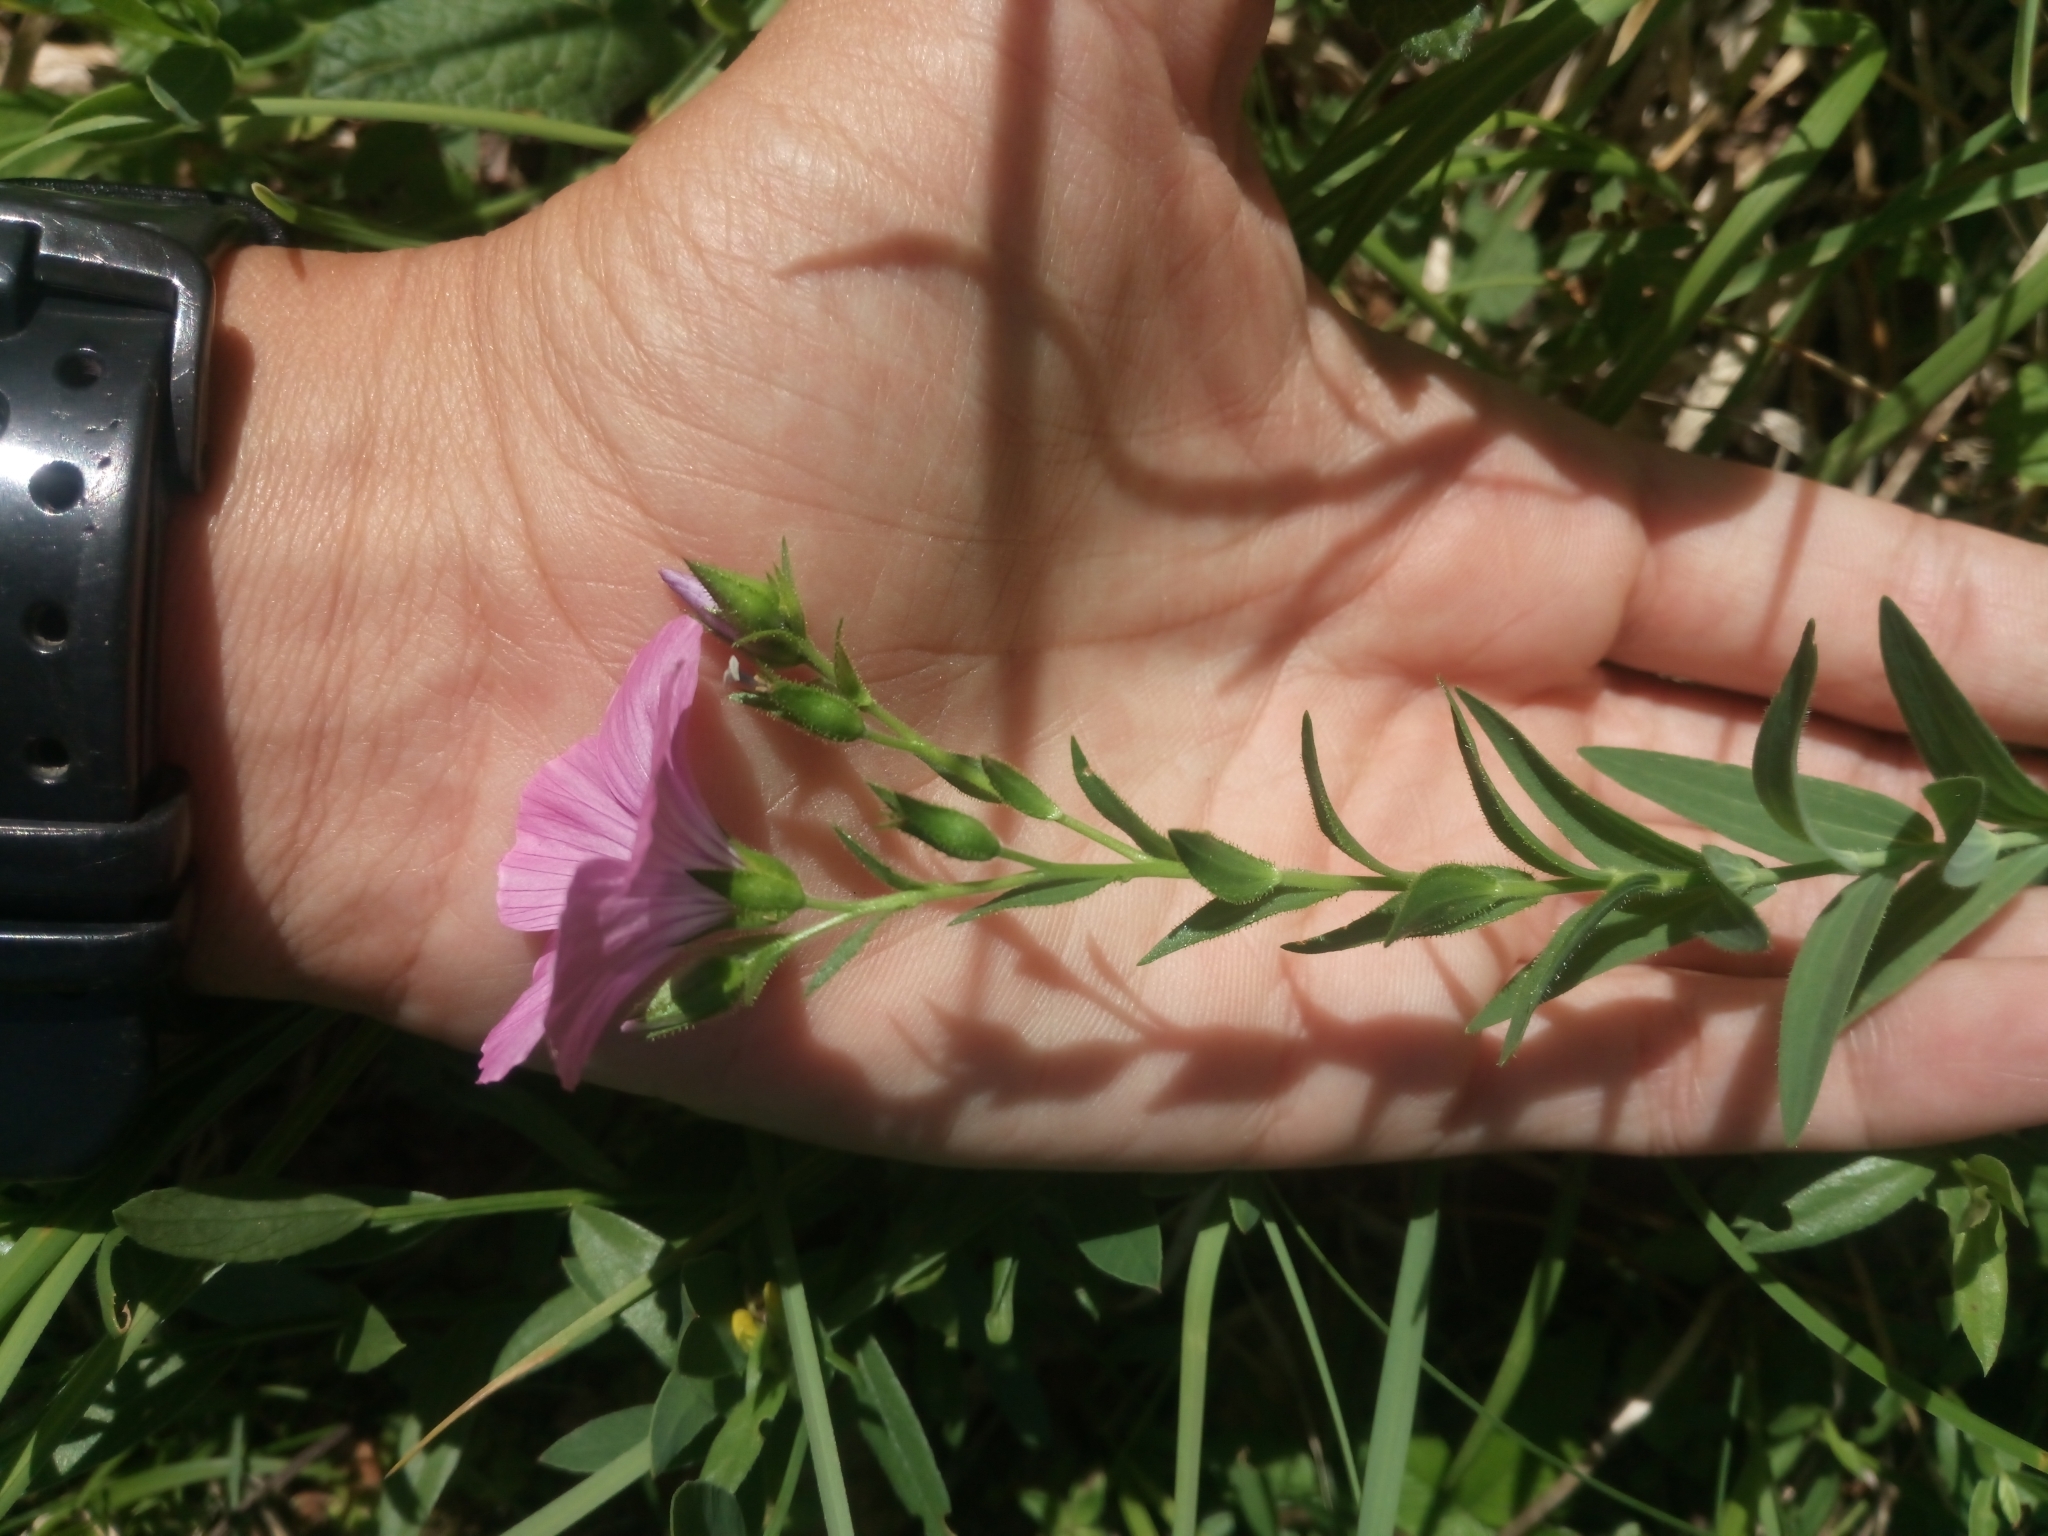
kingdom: Plantae
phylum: Tracheophyta
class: Magnoliopsida
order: Malpighiales
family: Linaceae
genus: Linum
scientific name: Linum viscosum
